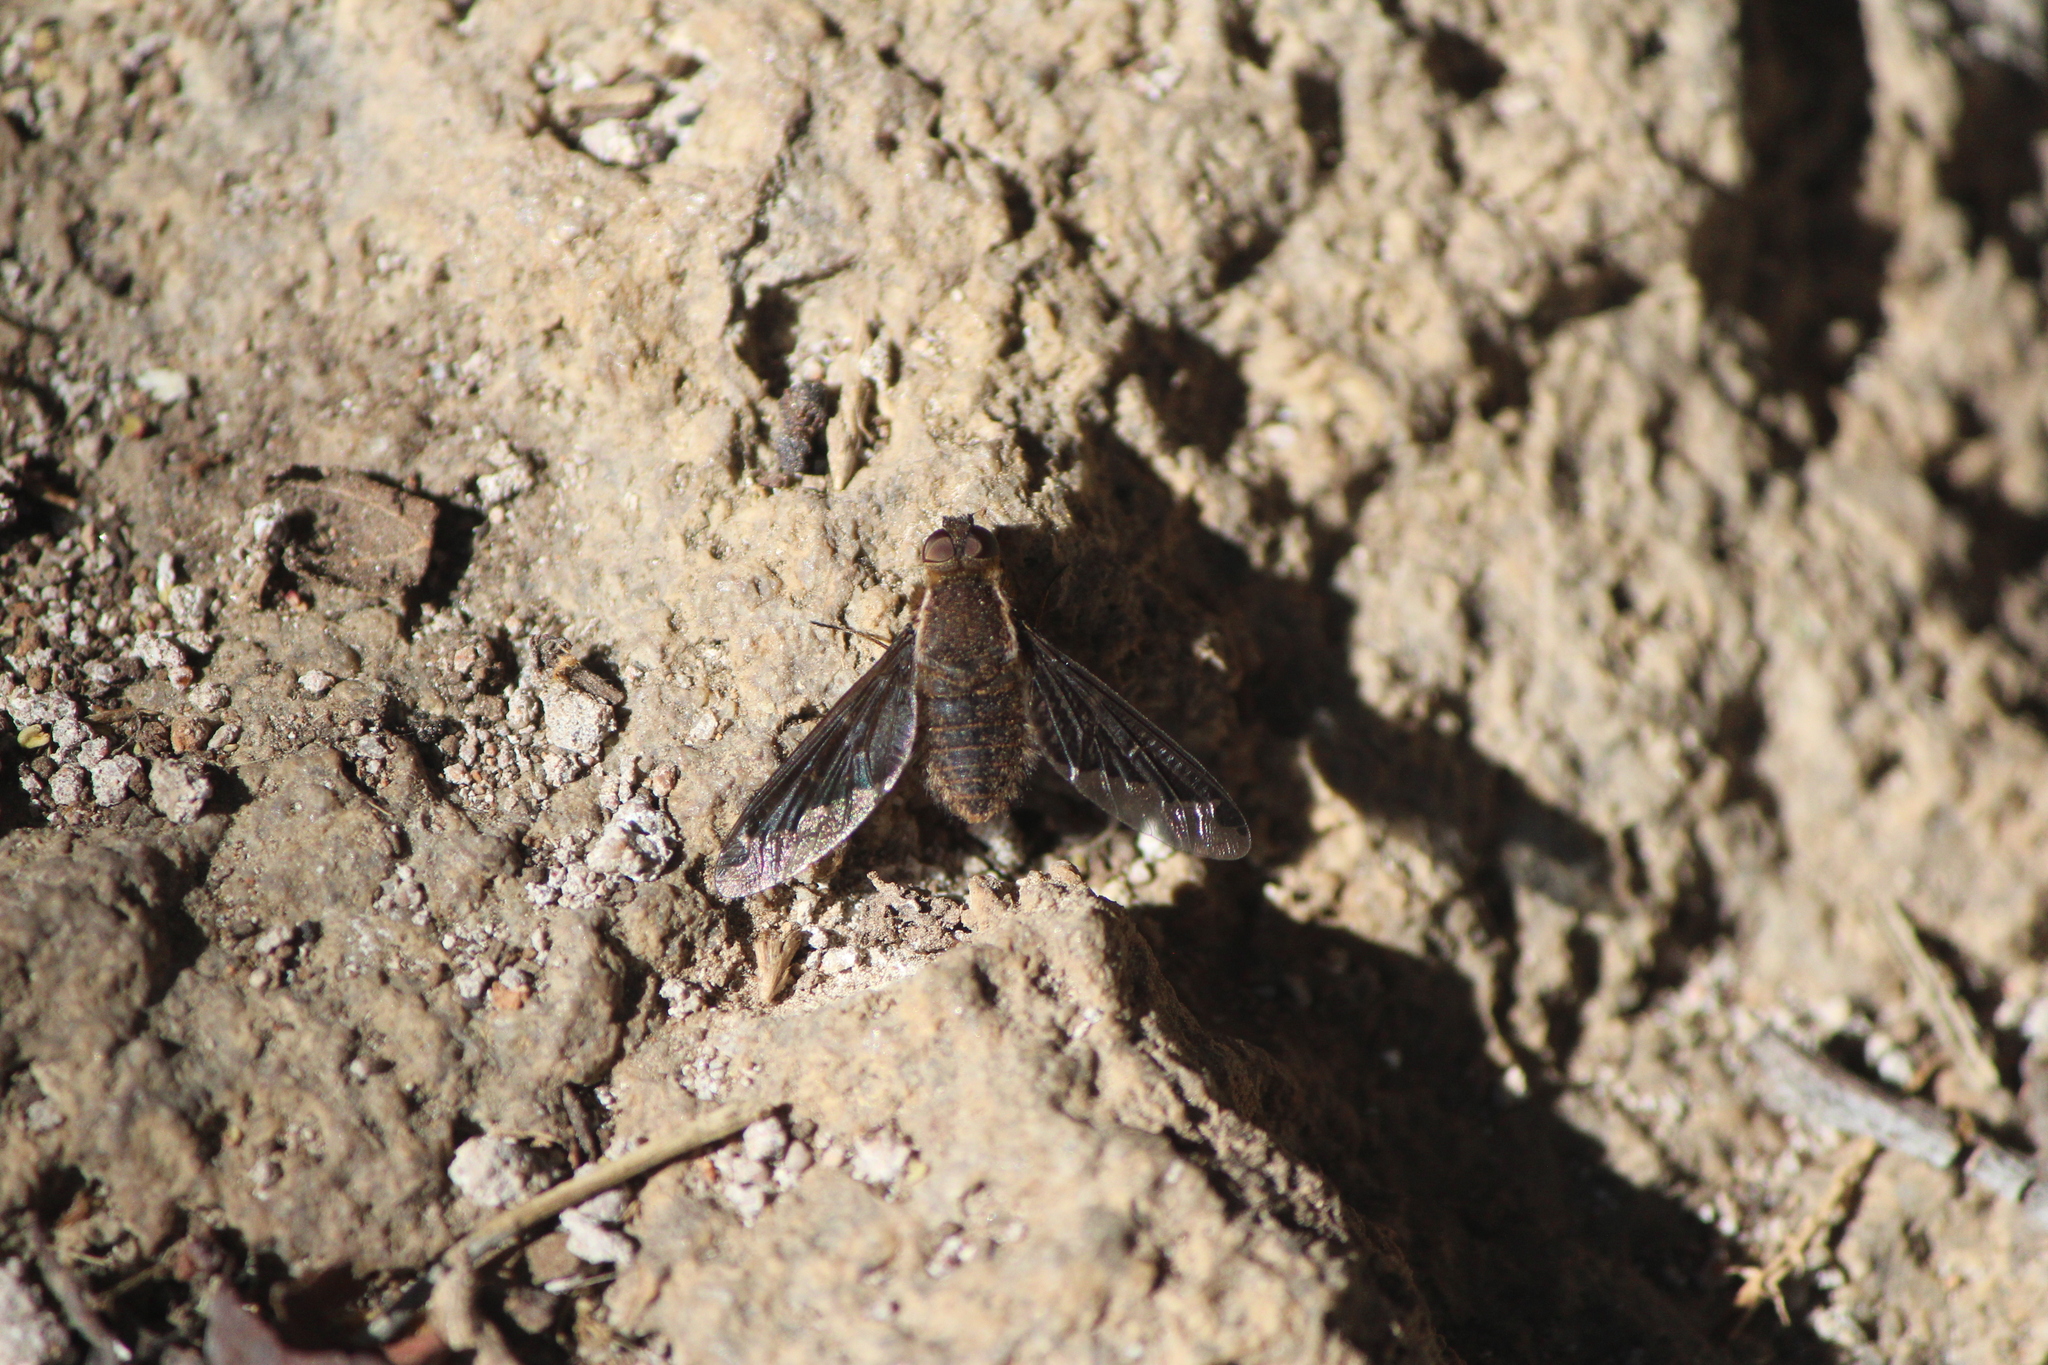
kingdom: Animalia
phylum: Arthropoda
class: Insecta
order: Diptera
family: Bombyliidae
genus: Hemipenthes
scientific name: Hemipenthes jaennickeana
